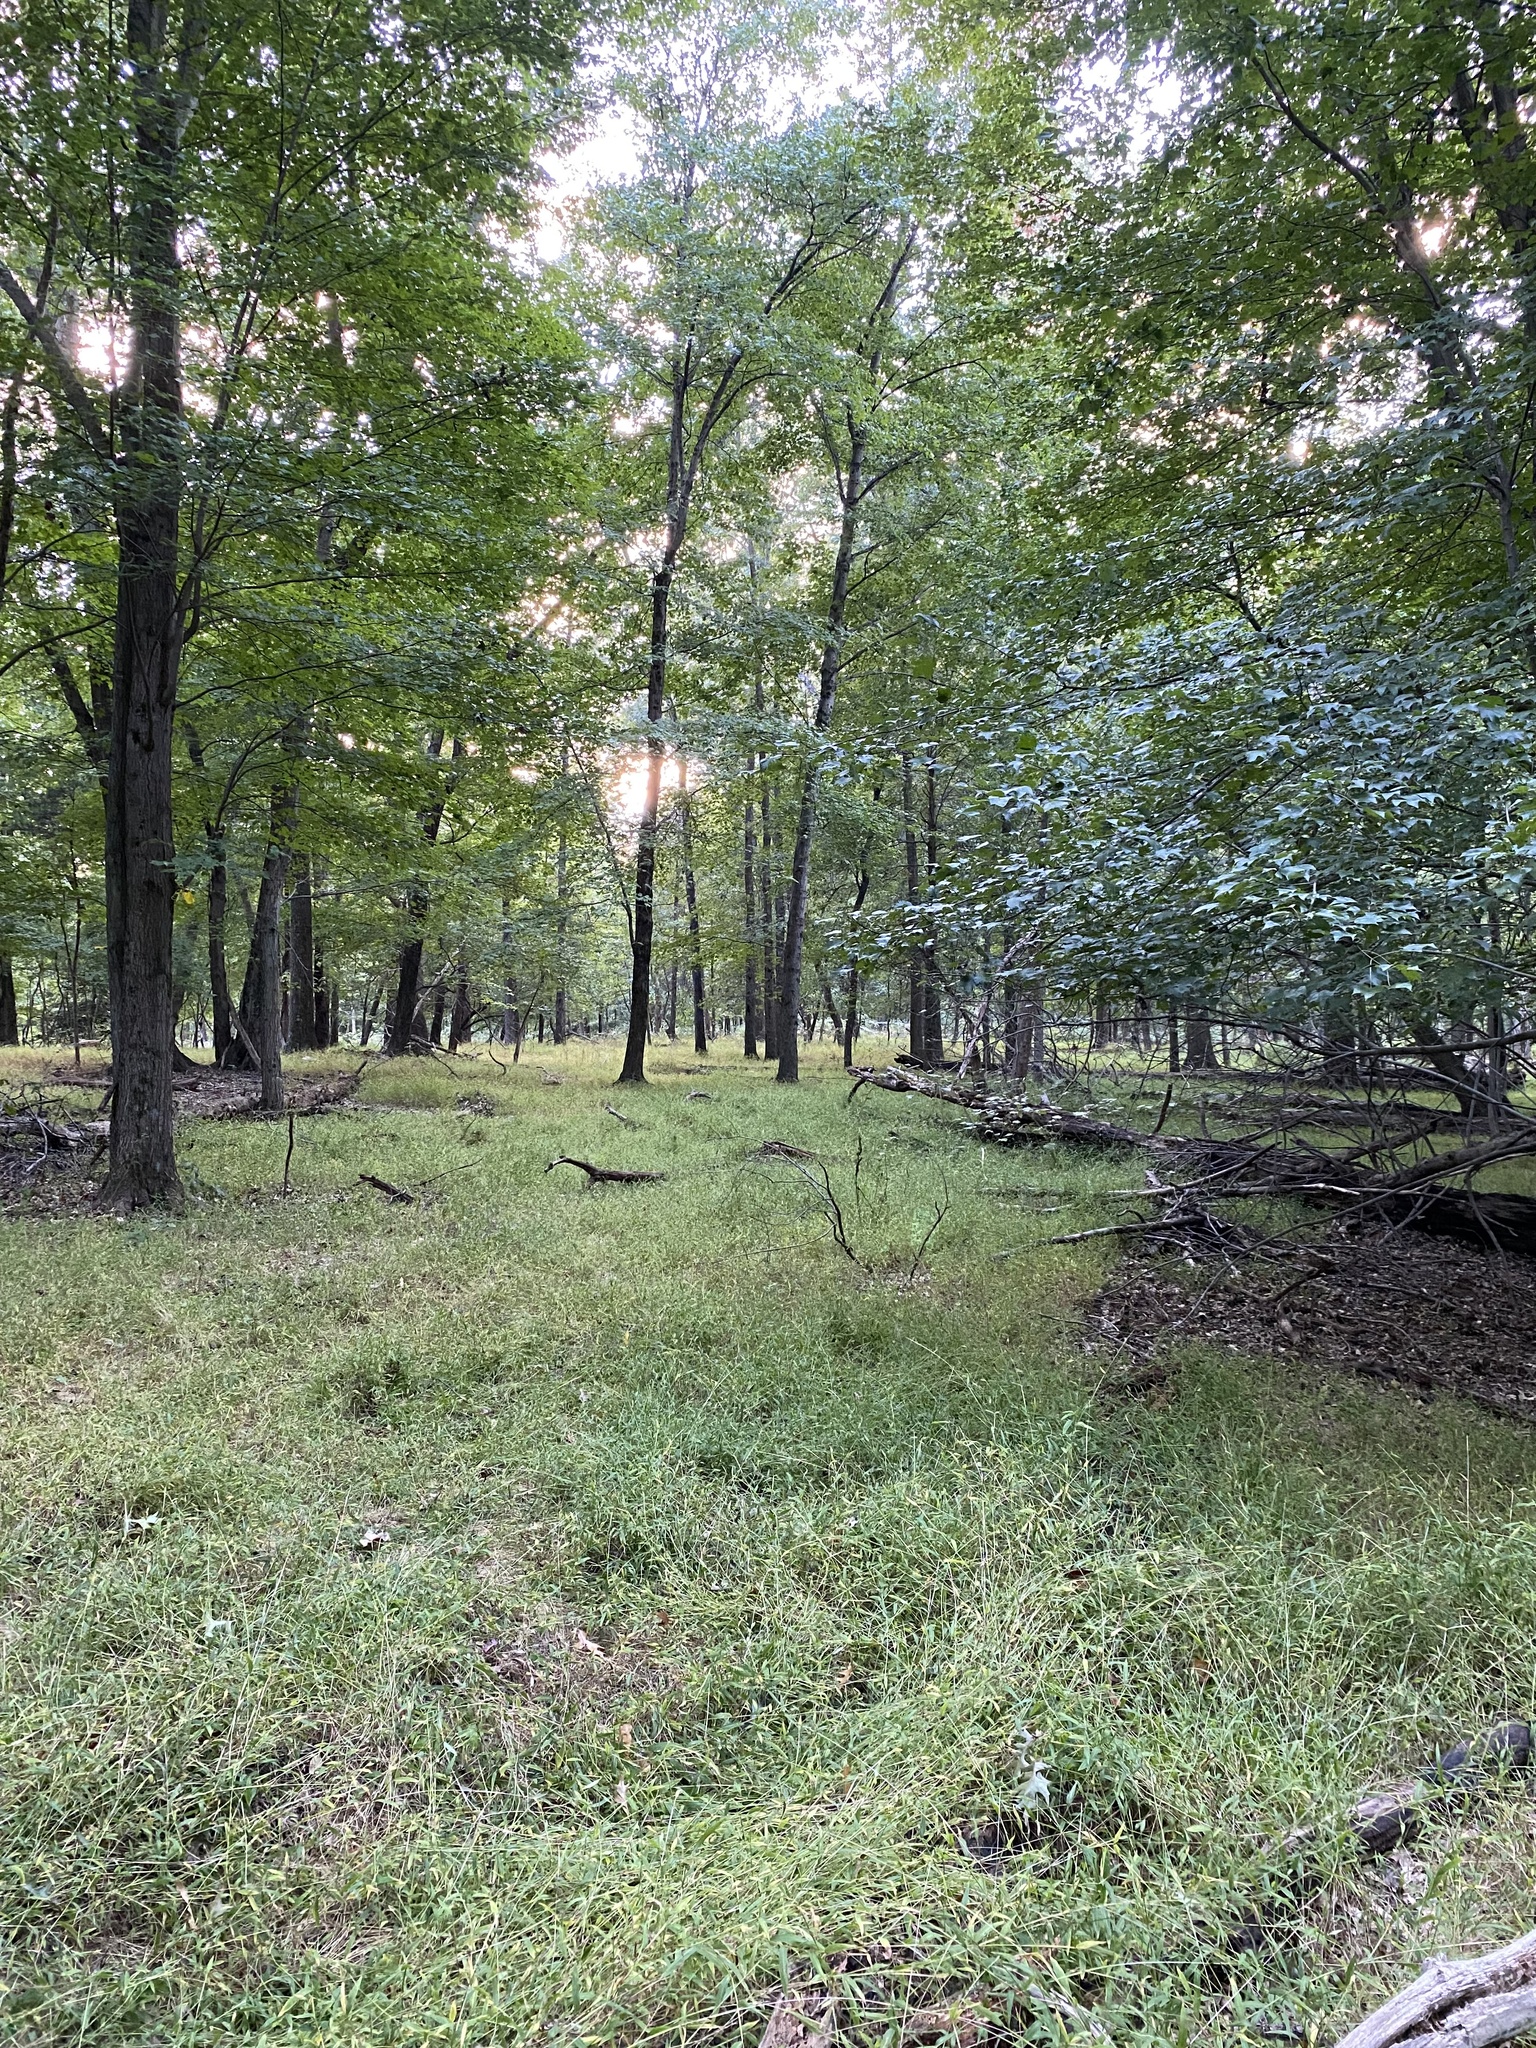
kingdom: Plantae
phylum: Tracheophyta
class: Liliopsida
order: Poales
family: Poaceae
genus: Microstegium
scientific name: Microstegium vimineum
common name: Japanese stiltgrass
